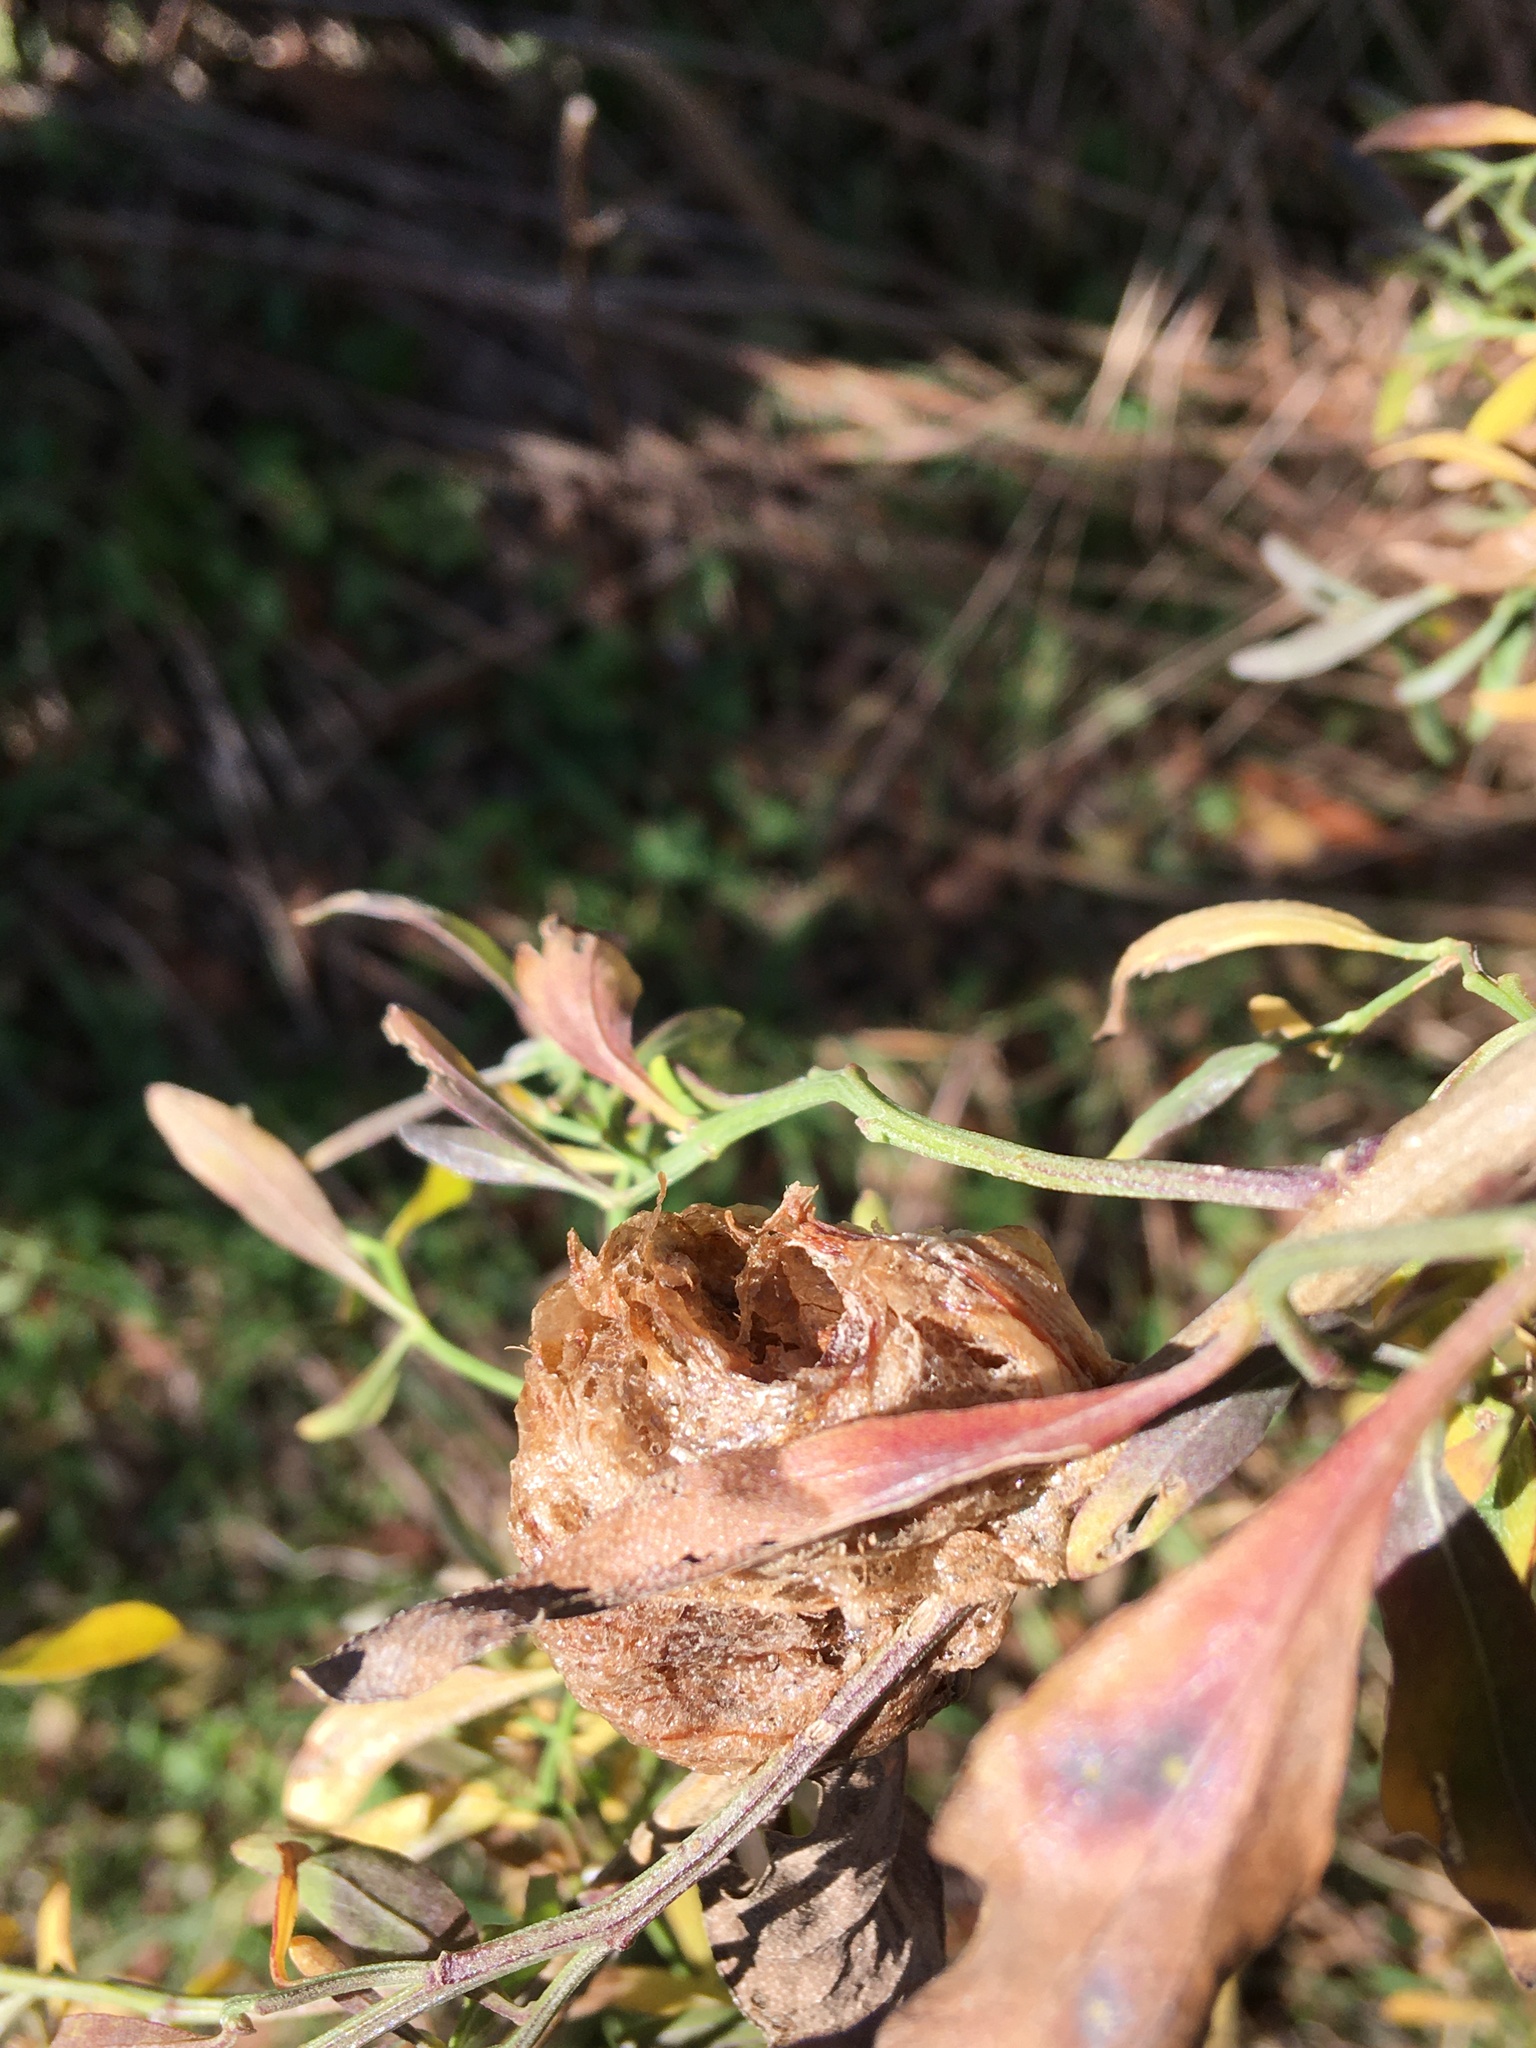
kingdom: Animalia
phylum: Arthropoda
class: Insecta
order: Mantodea
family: Mantidae
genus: Tenodera
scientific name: Tenodera sinensis
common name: Chinese mantis
